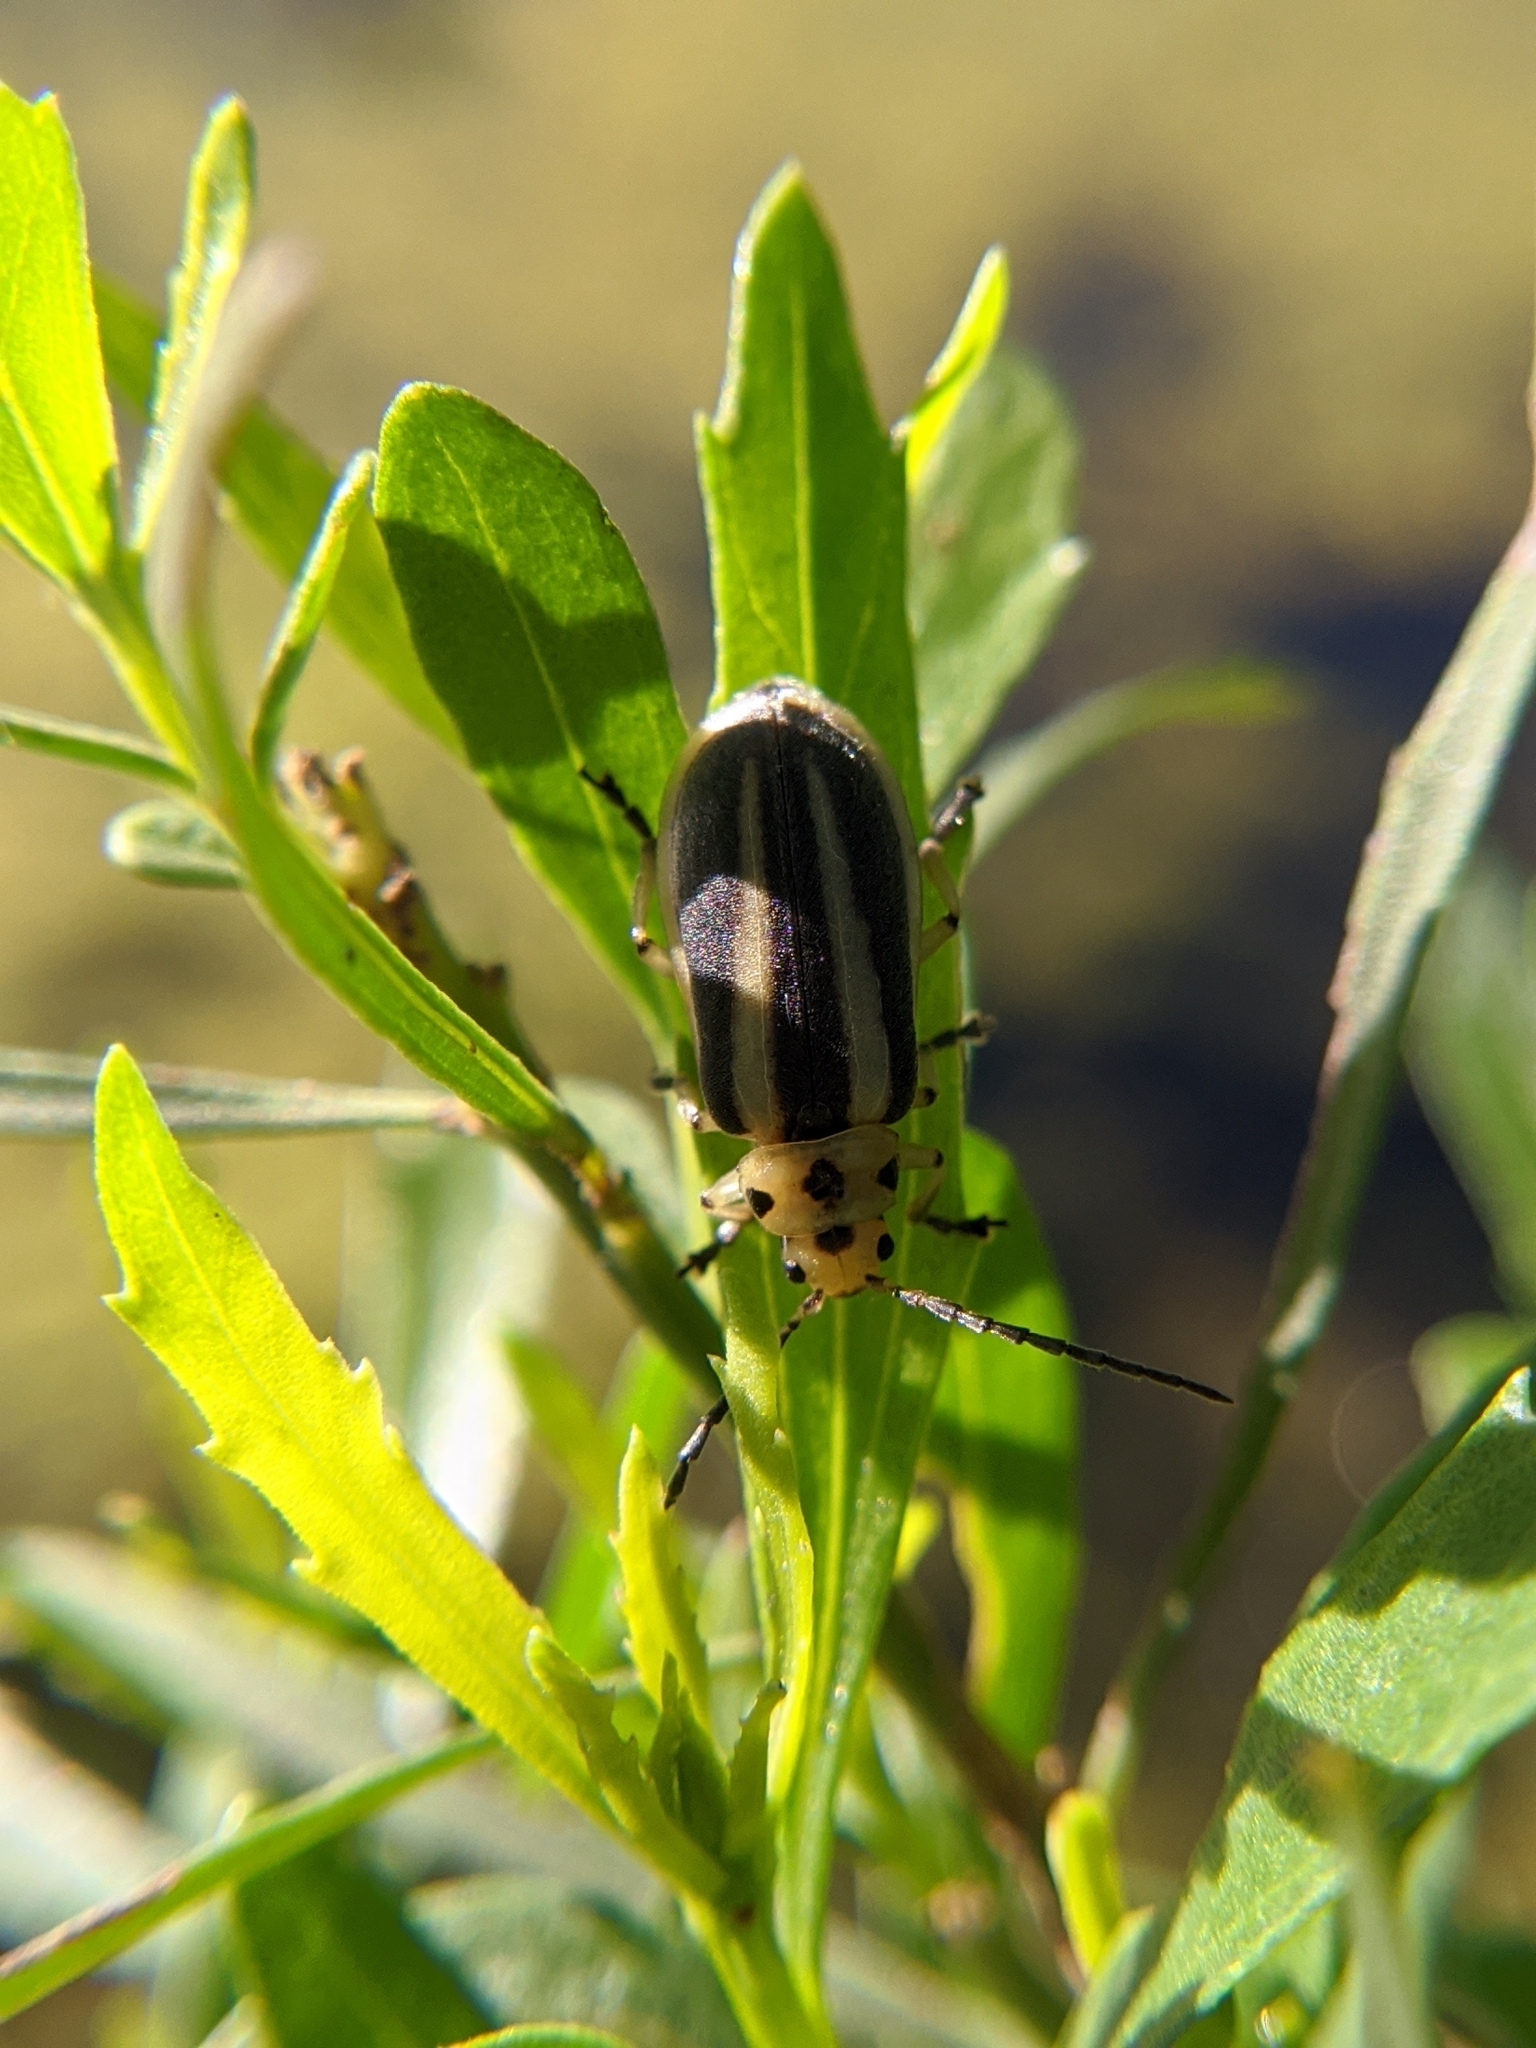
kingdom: Animalia
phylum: Arthropoda
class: Insecta
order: Coleoptera
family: Chrysomelidae
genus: Trirhabda
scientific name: Trirhabda bacharidis
